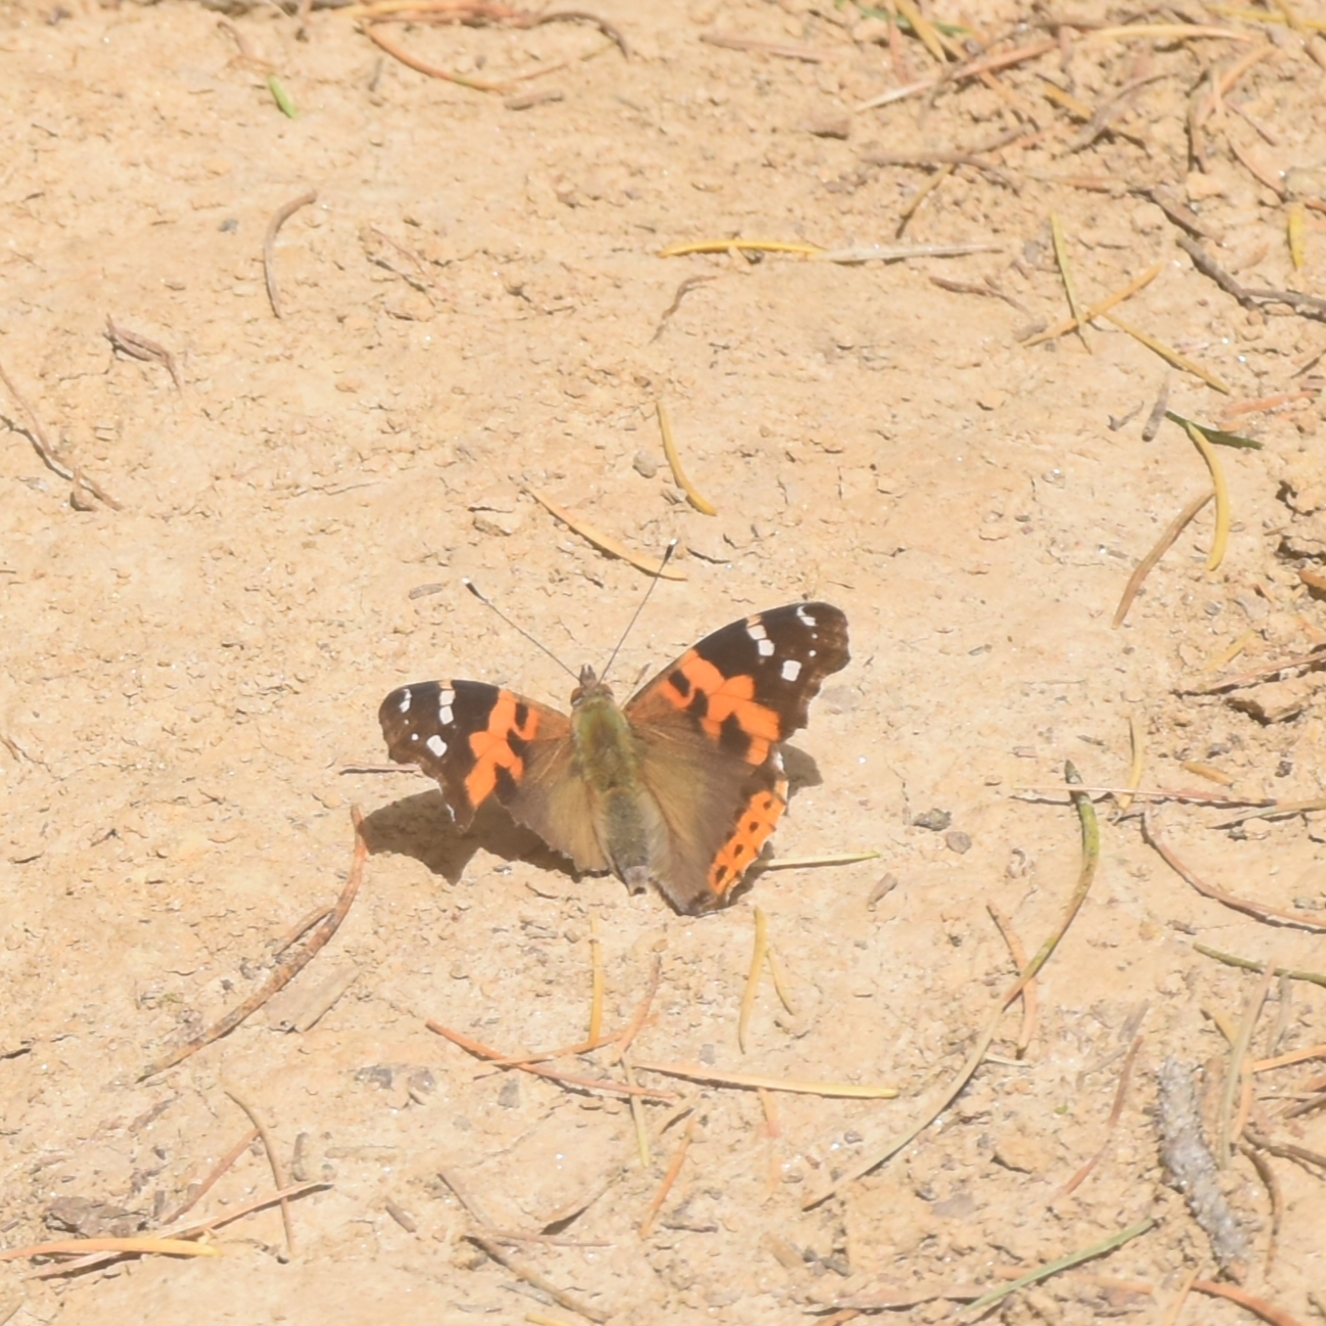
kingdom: Animalia
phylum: Arthropoda
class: Insecta
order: Lepidoptera
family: Nymphalidae
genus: Vanessa
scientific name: Vanessa indica
